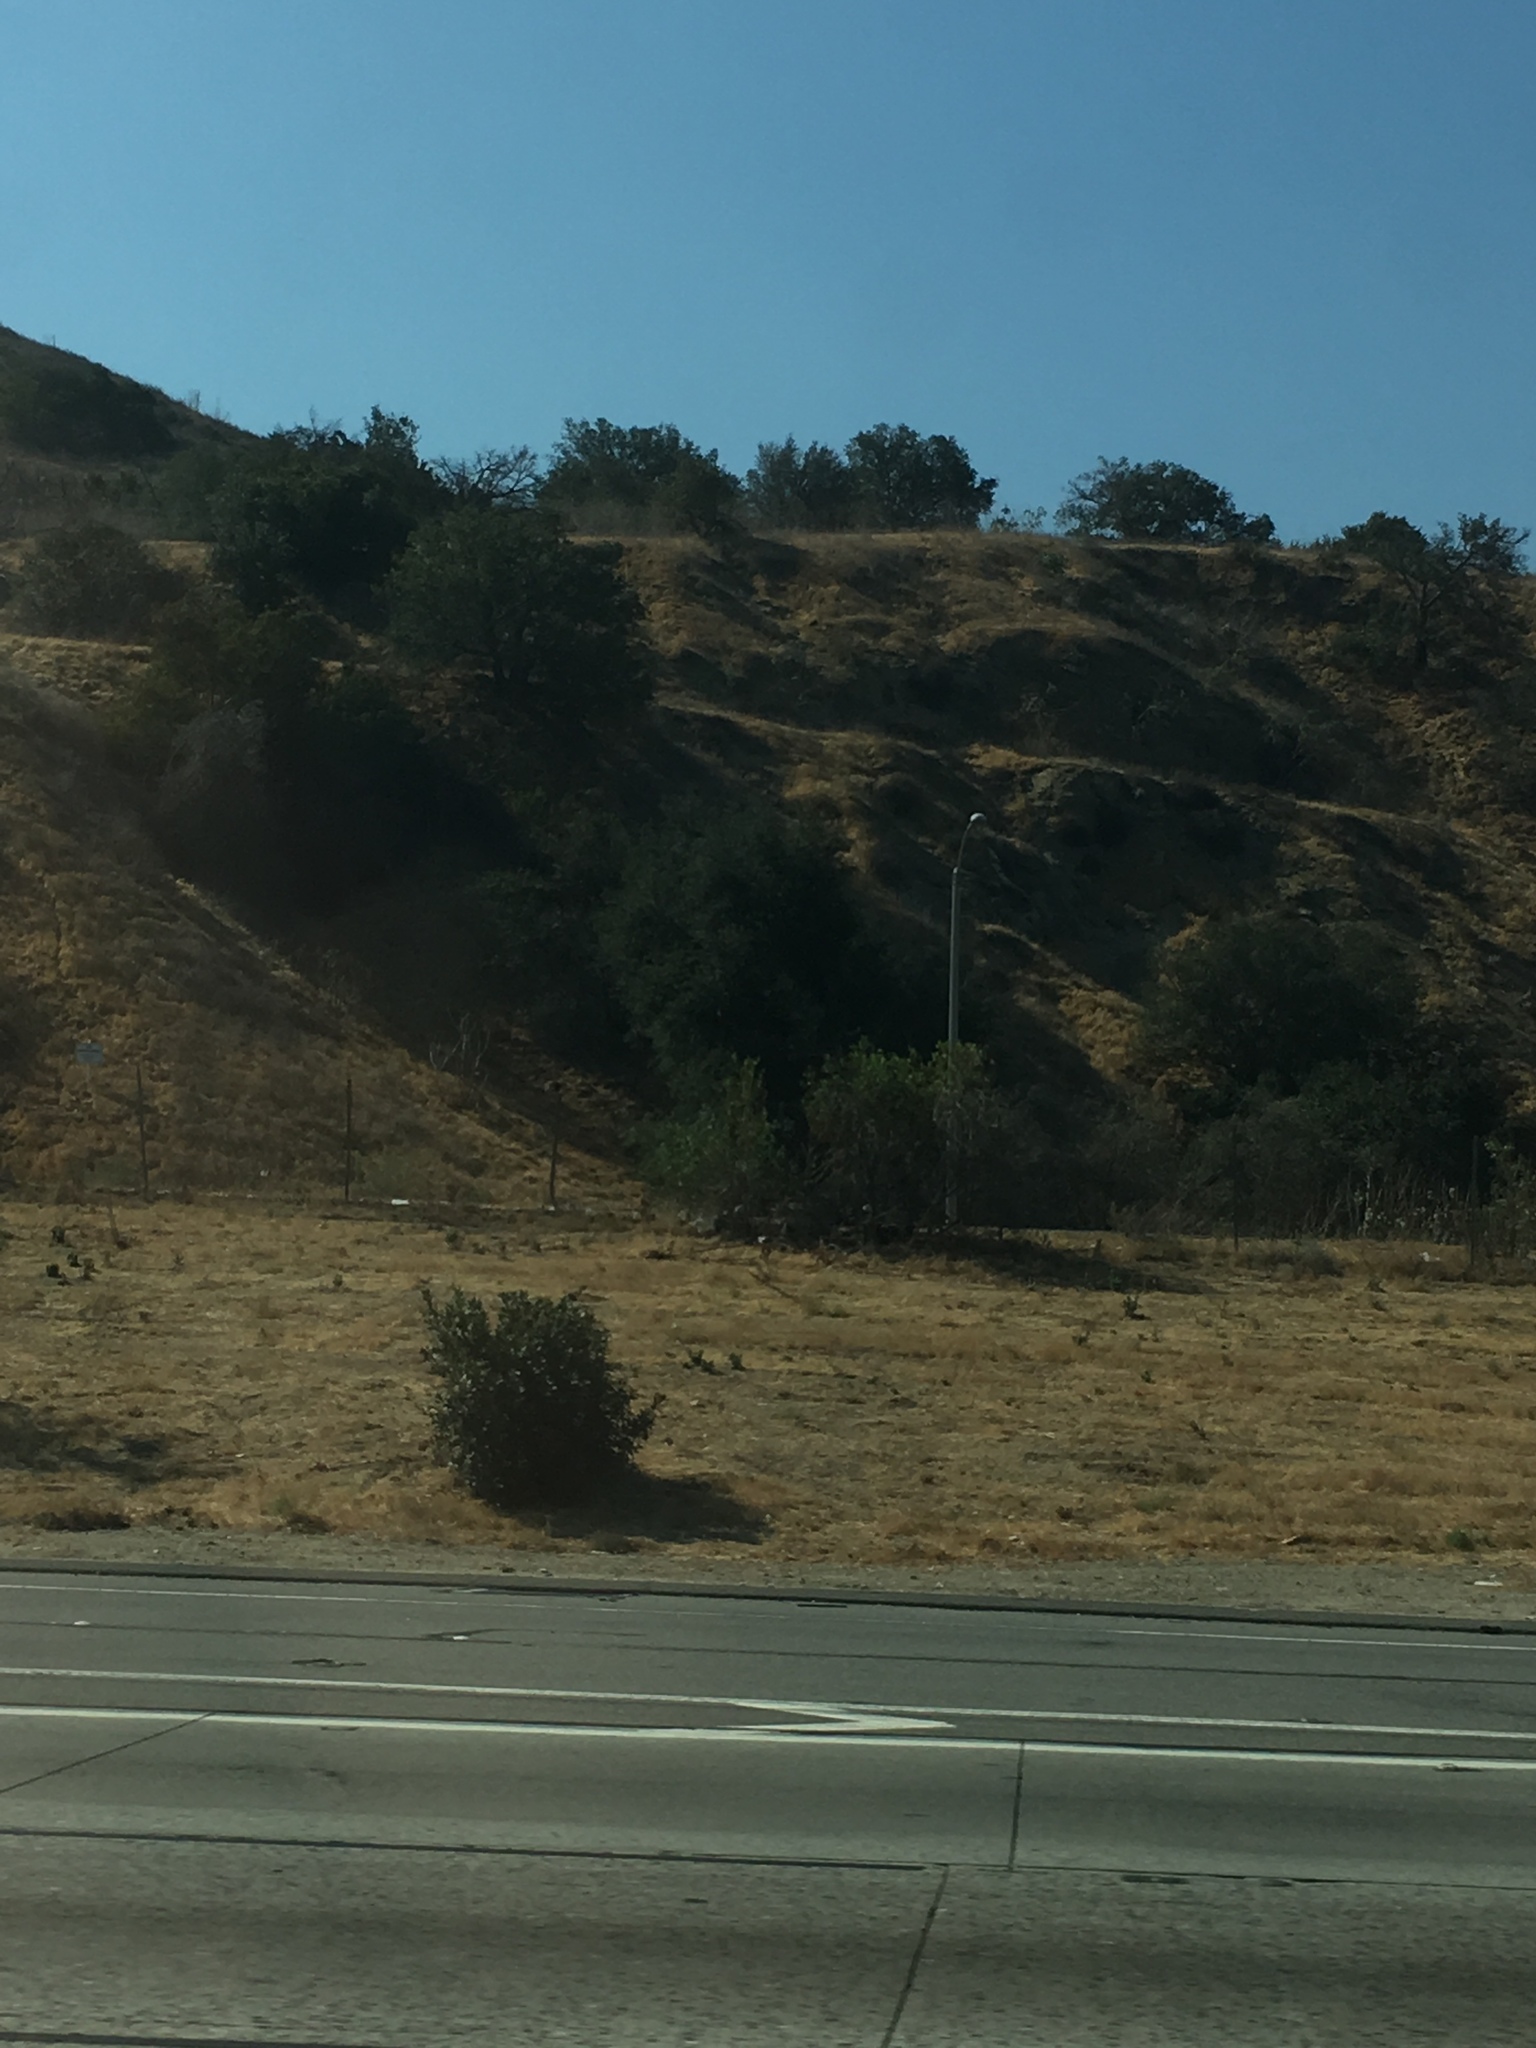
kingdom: Plantae
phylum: Tracheophyta
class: Magnoliopsida
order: Fagales
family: Fagaceae
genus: Quercus
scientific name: Quercus agrifolia
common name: California live oak
